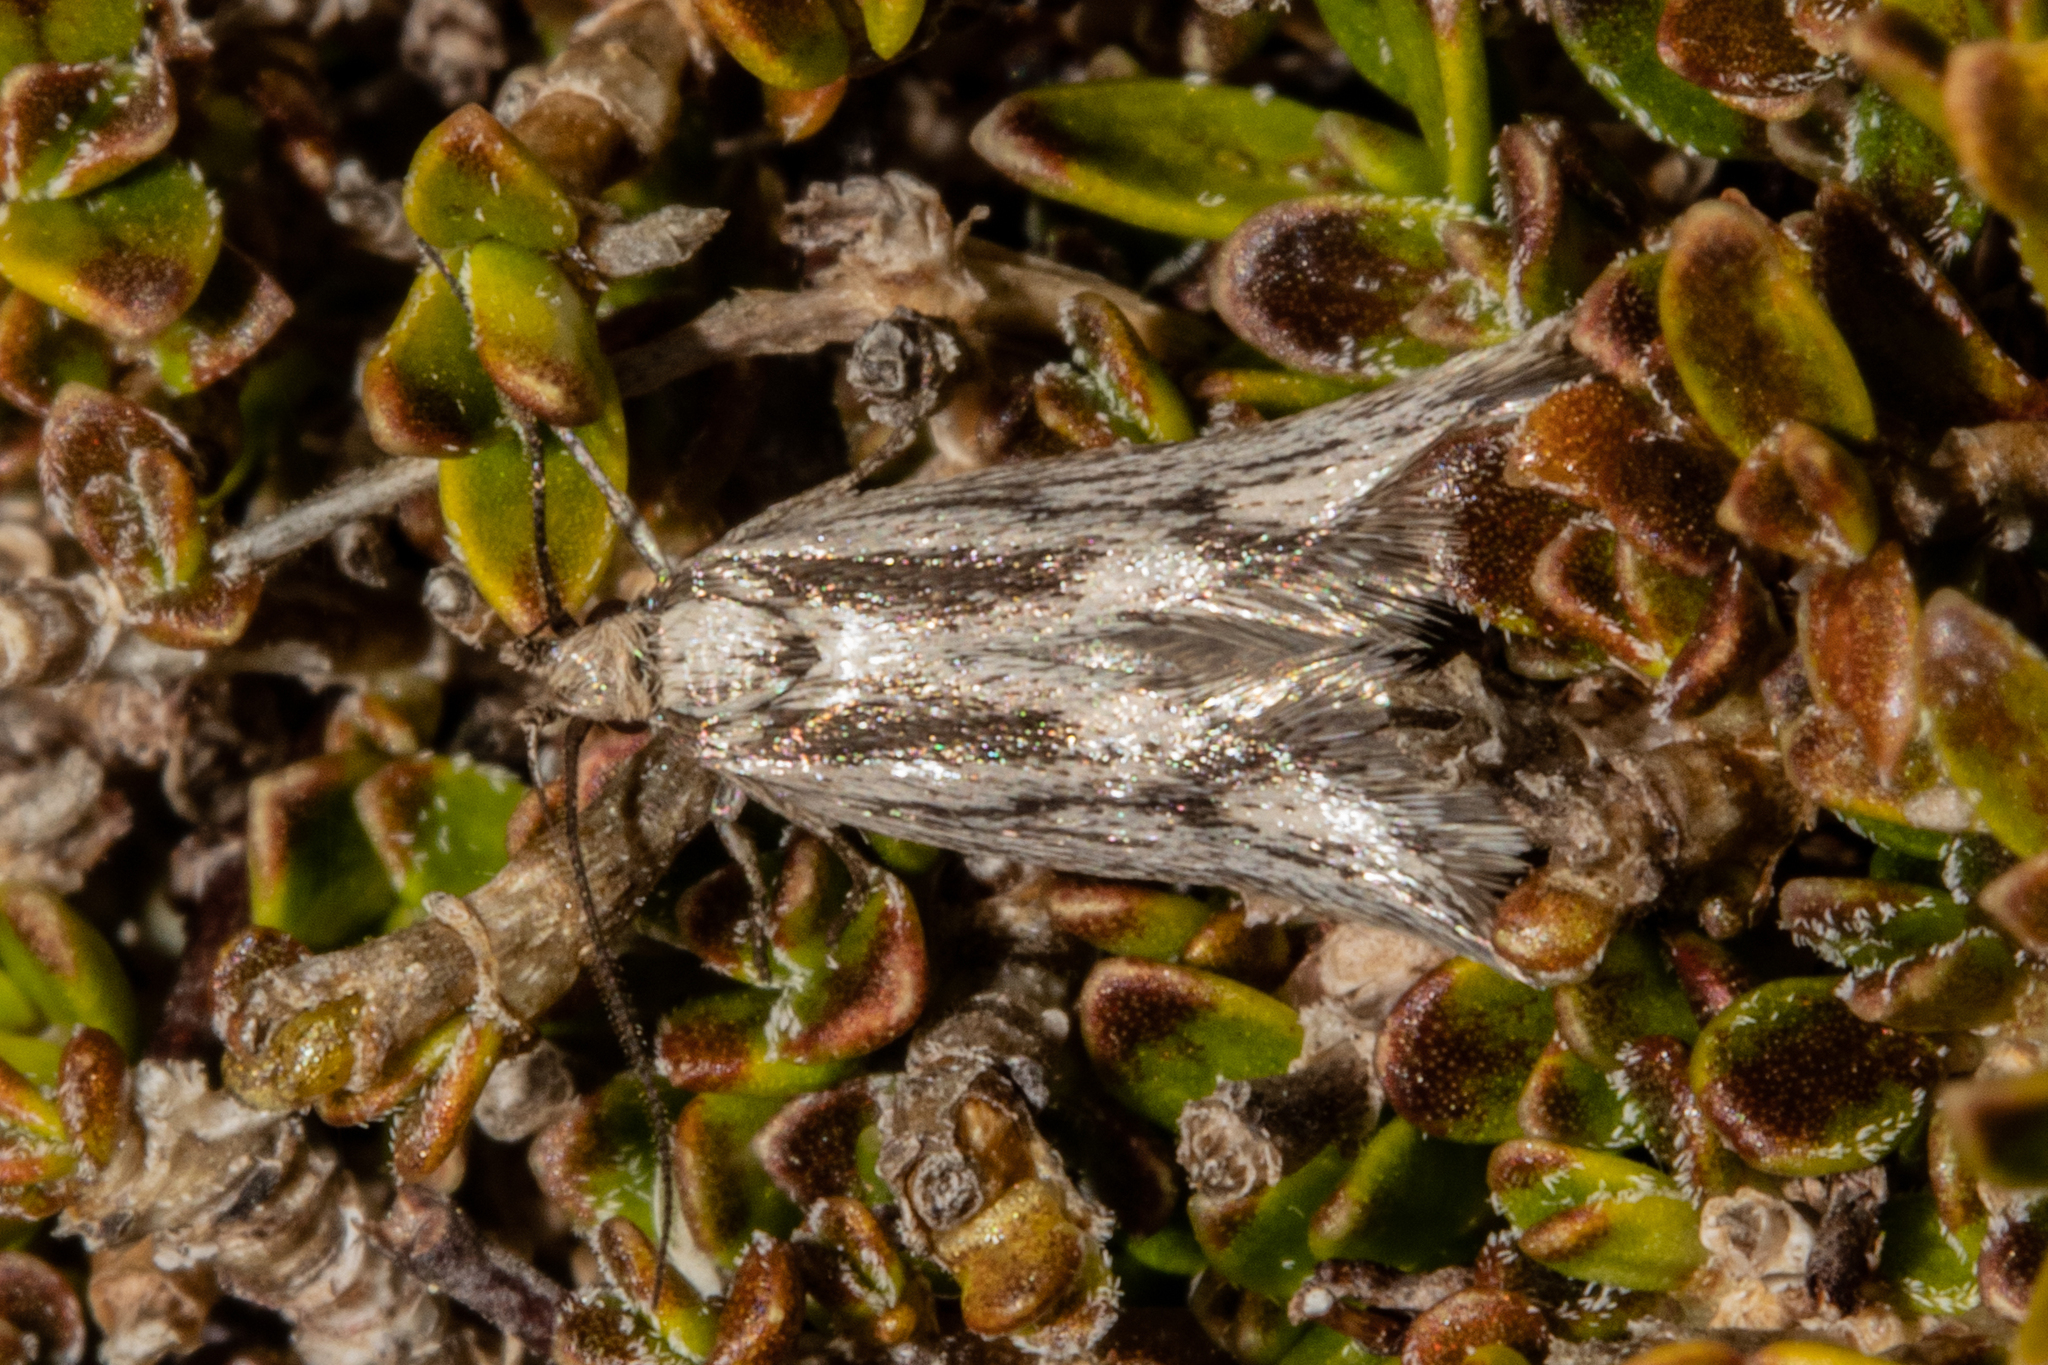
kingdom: Animalia
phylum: Arthropoda
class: Insecta
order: Lepidoptera
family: Oecophoridae
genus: Prepalla
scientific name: Prepalla
